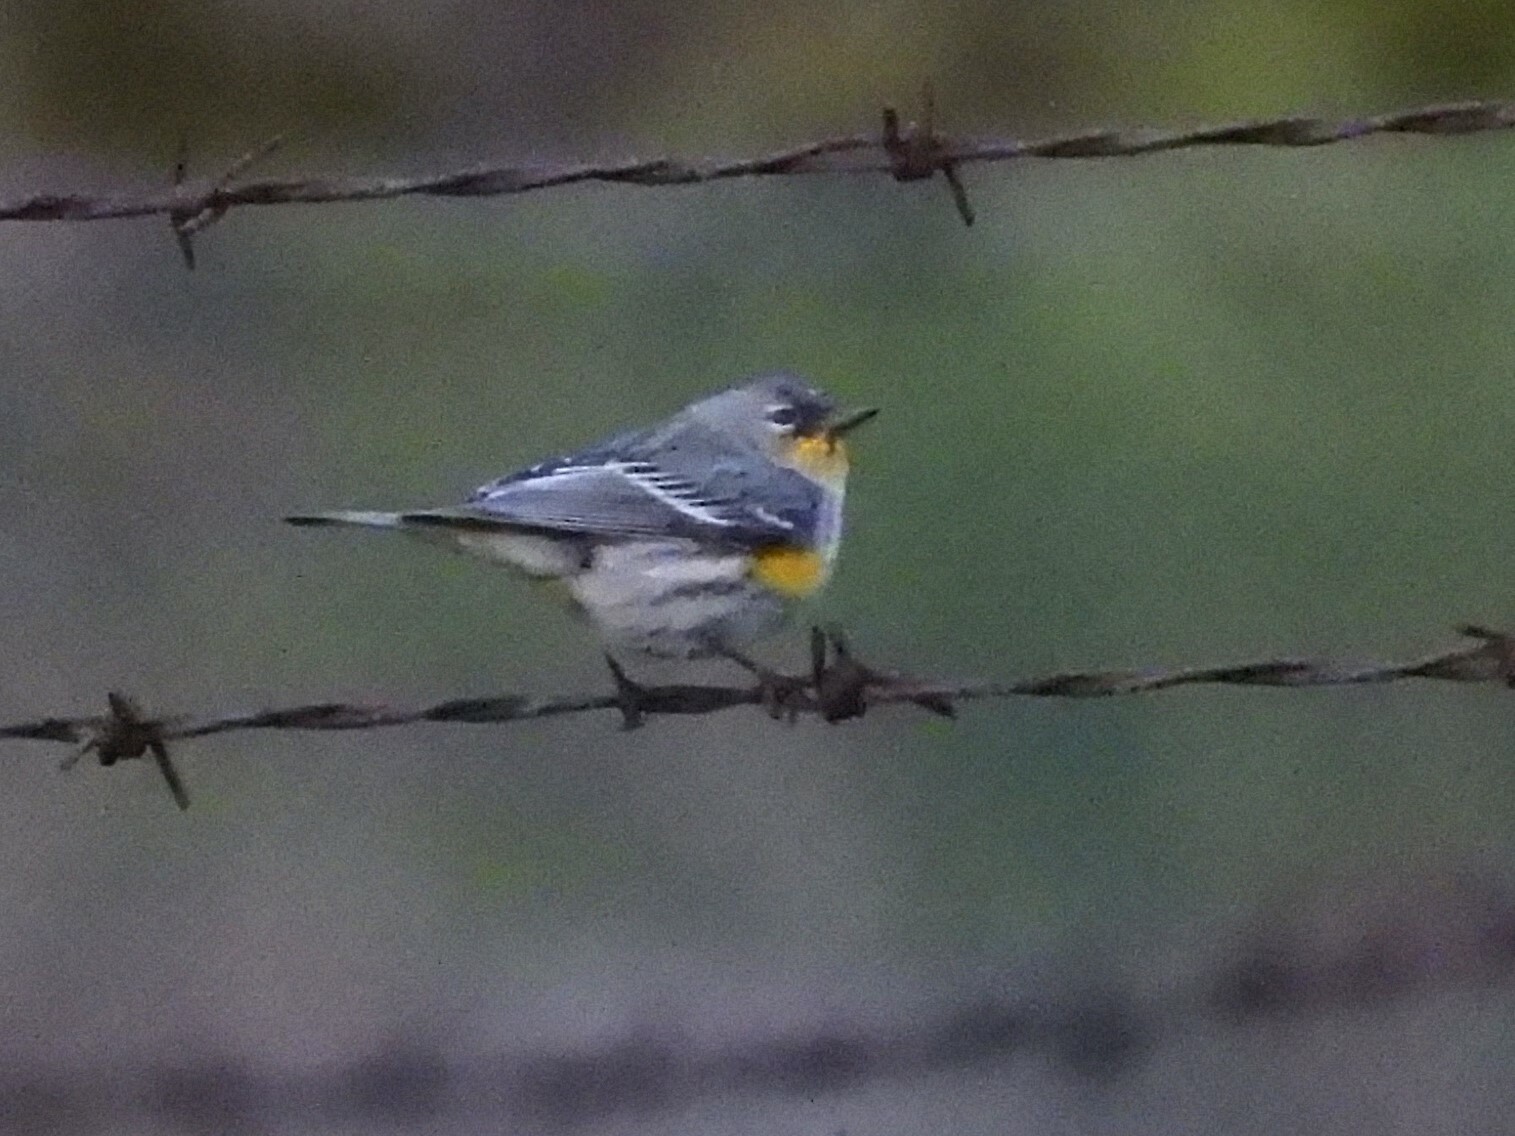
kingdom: Animalia
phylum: Chordata
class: Aves
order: Passeriformes
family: Parulidae
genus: Setophaga
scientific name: Setophaga coronata
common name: Myrtle warbler
